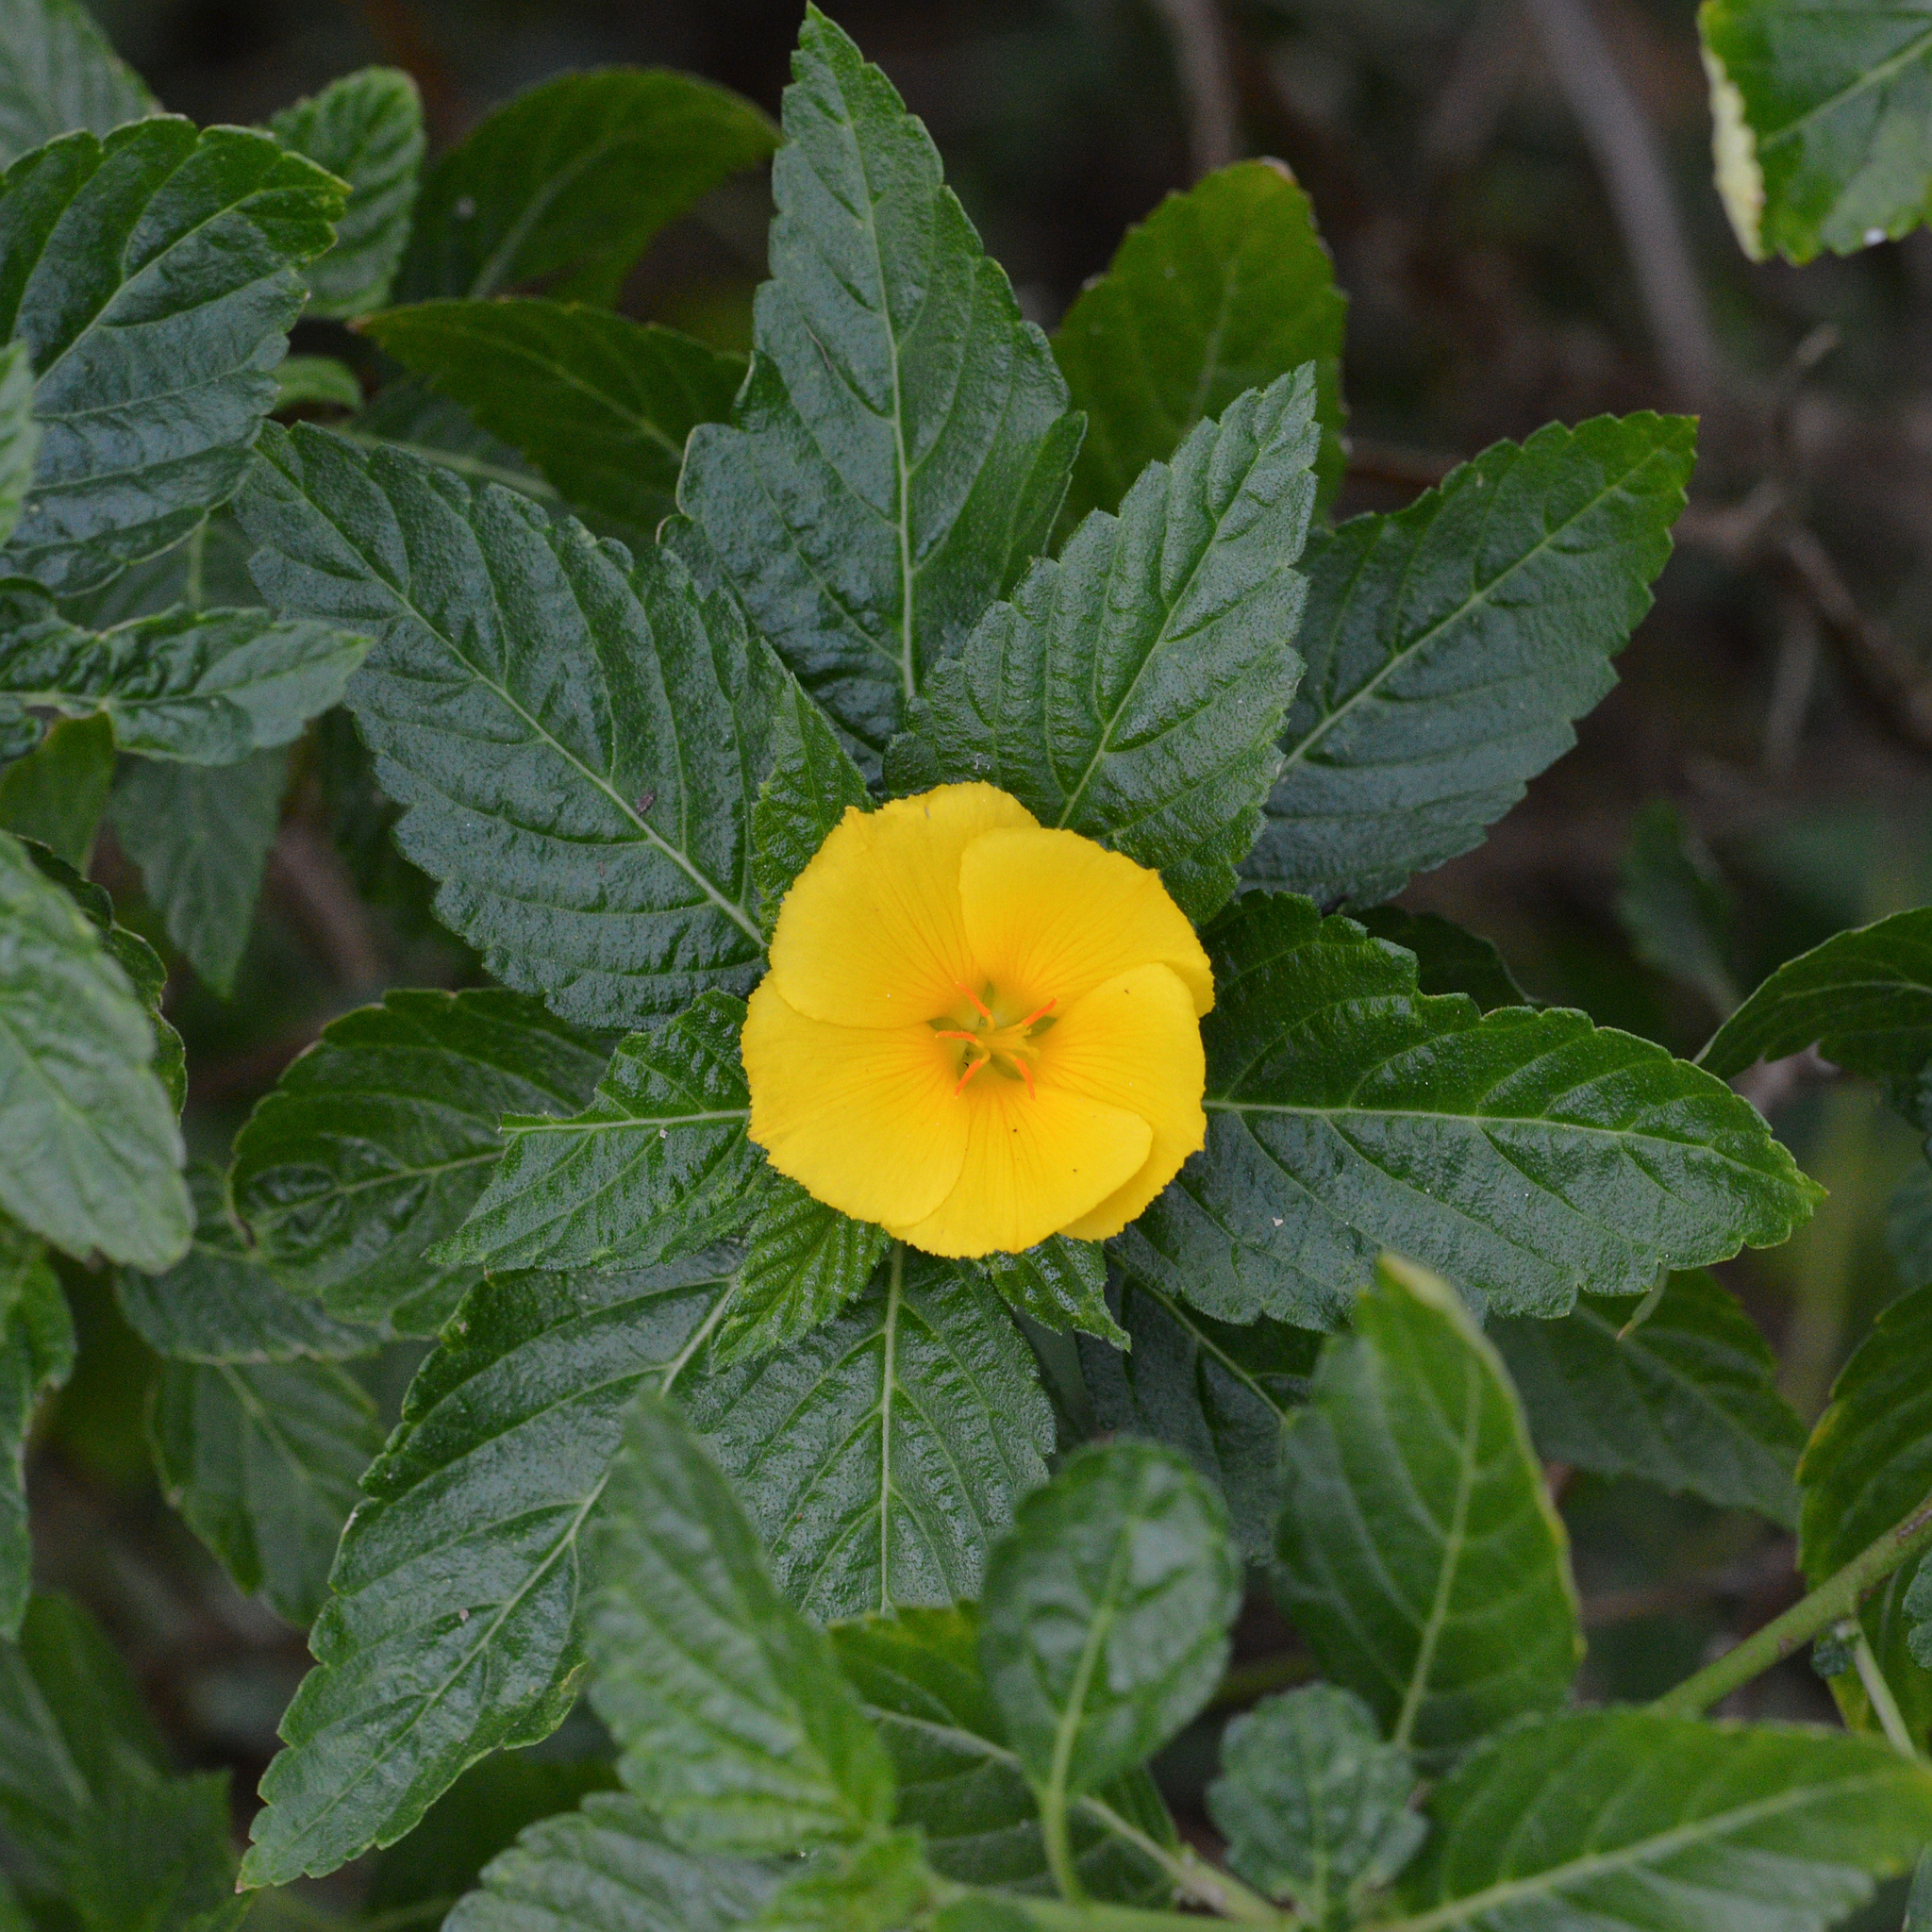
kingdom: Plantae
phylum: Tracheophyta
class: Magnoliopsida
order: Malpighiales
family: Turneraceae
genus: Turnera
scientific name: Turnera ulmifolia
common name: Ramgoat dashalong
